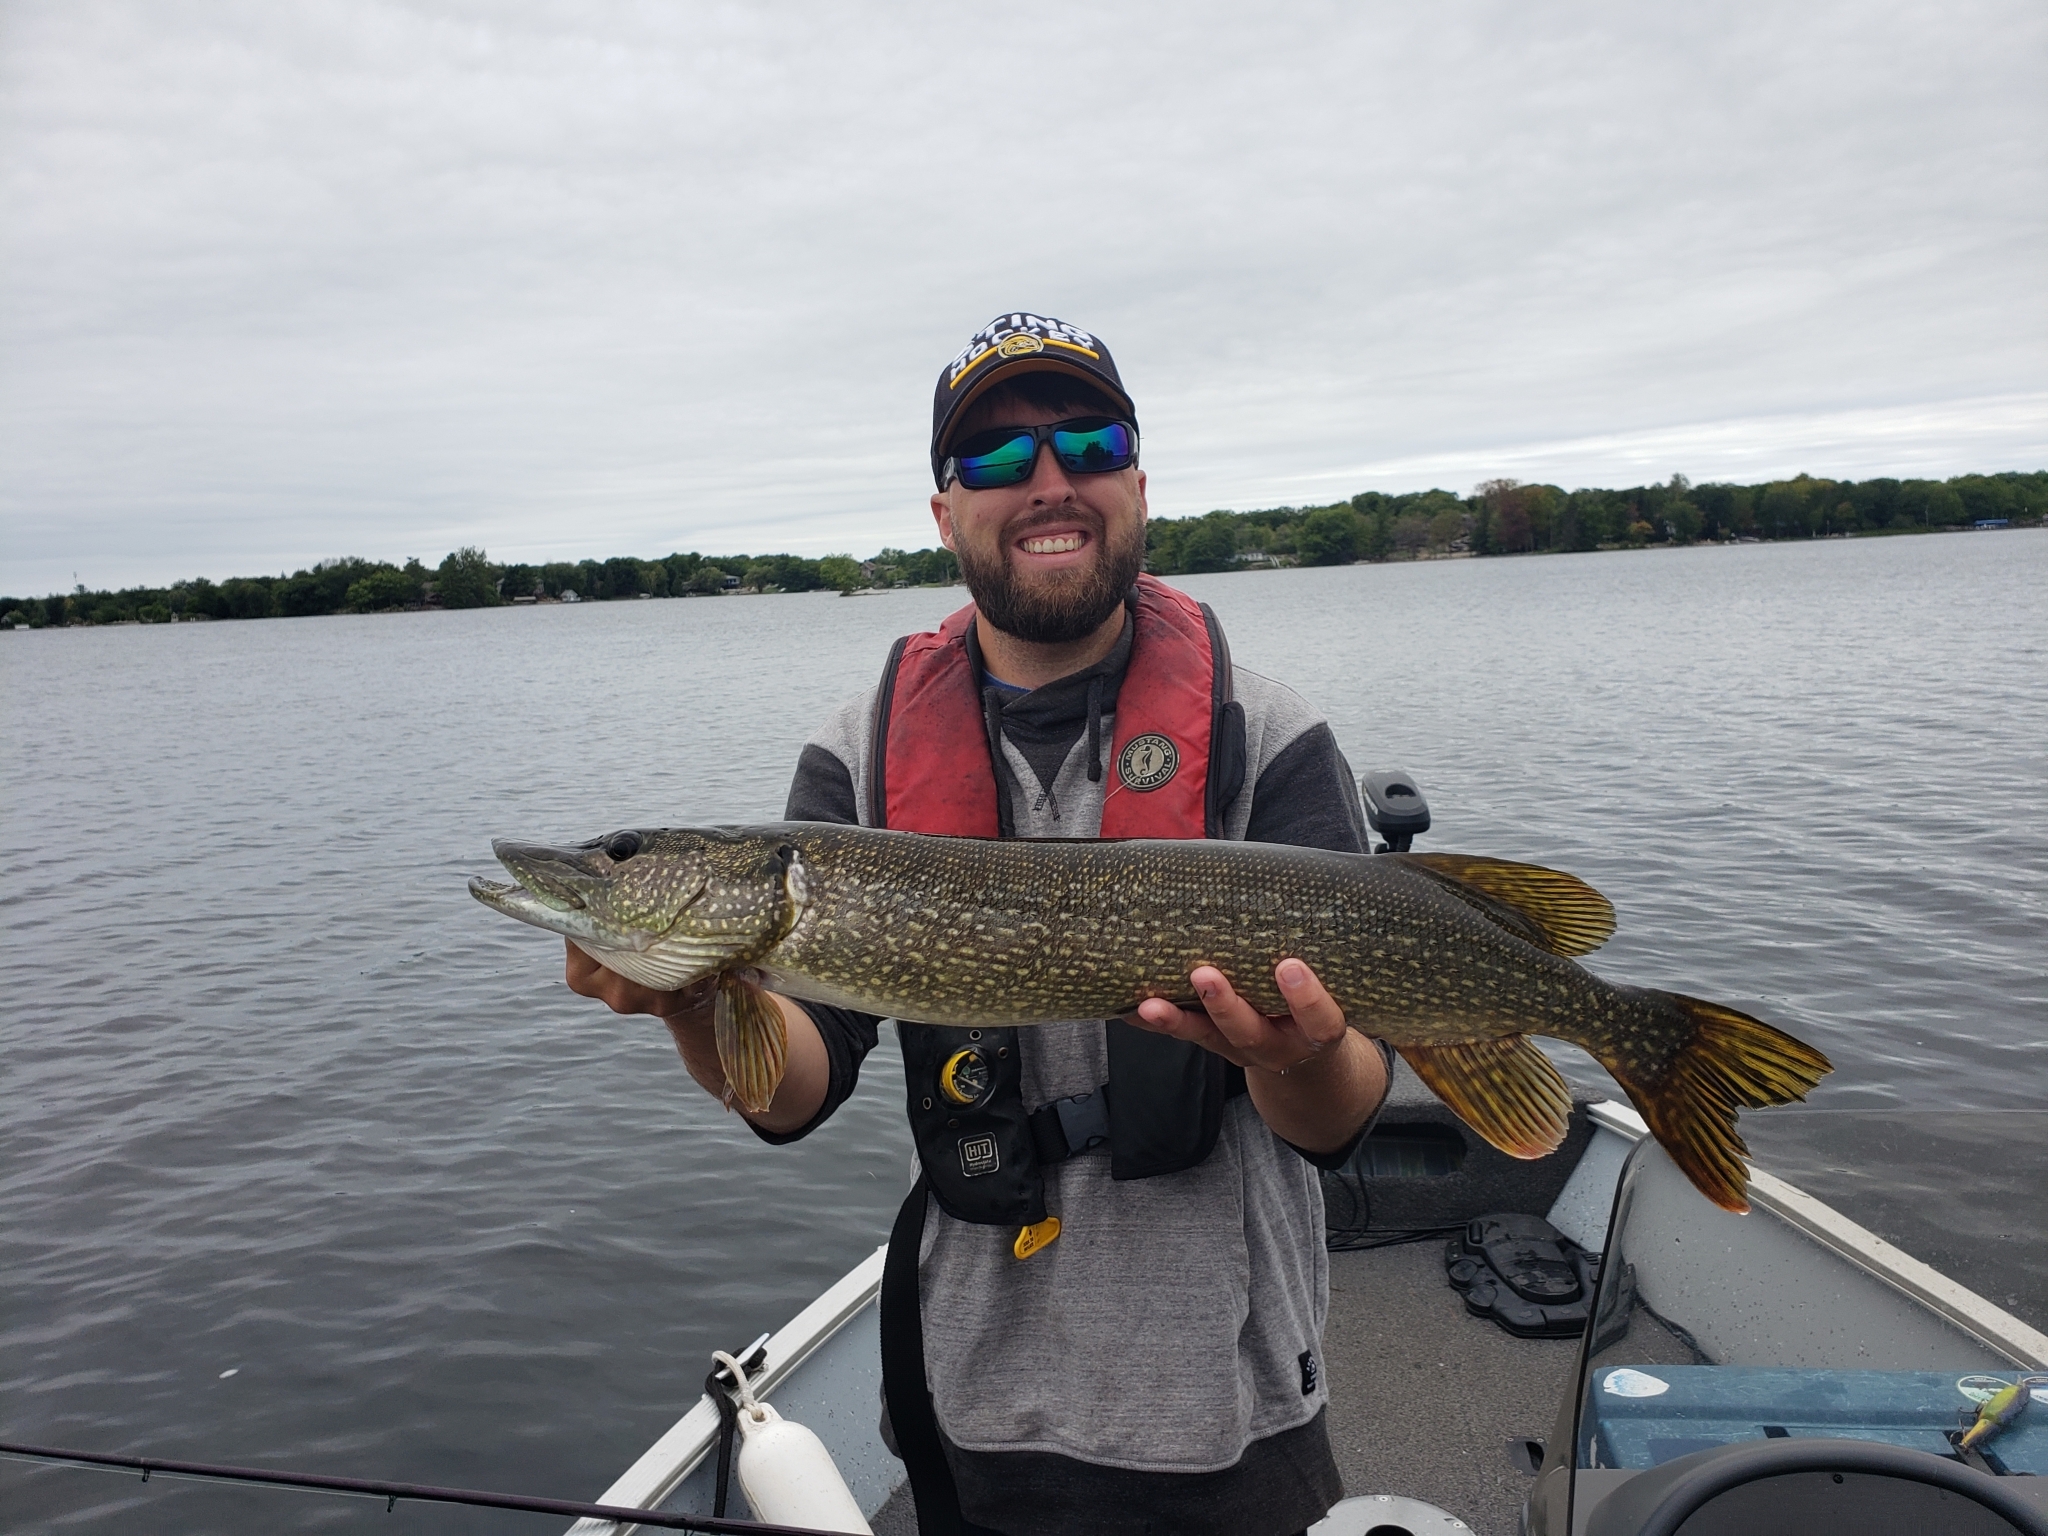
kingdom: Animalia
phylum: Chordata
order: Esociformes
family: Esocidae
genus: Esox
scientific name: Esox lucius
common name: Northern pike
